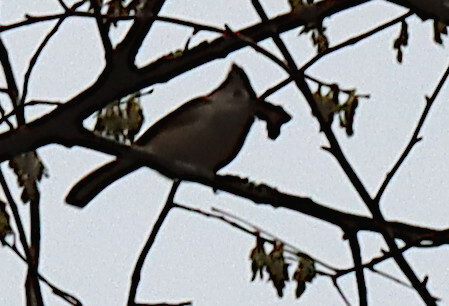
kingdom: Animalia
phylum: Chordata
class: Aves
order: Passeriformes
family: Paridae
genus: Baeolophus
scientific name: Baeolophus bicolor
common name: Tufted titmouse
